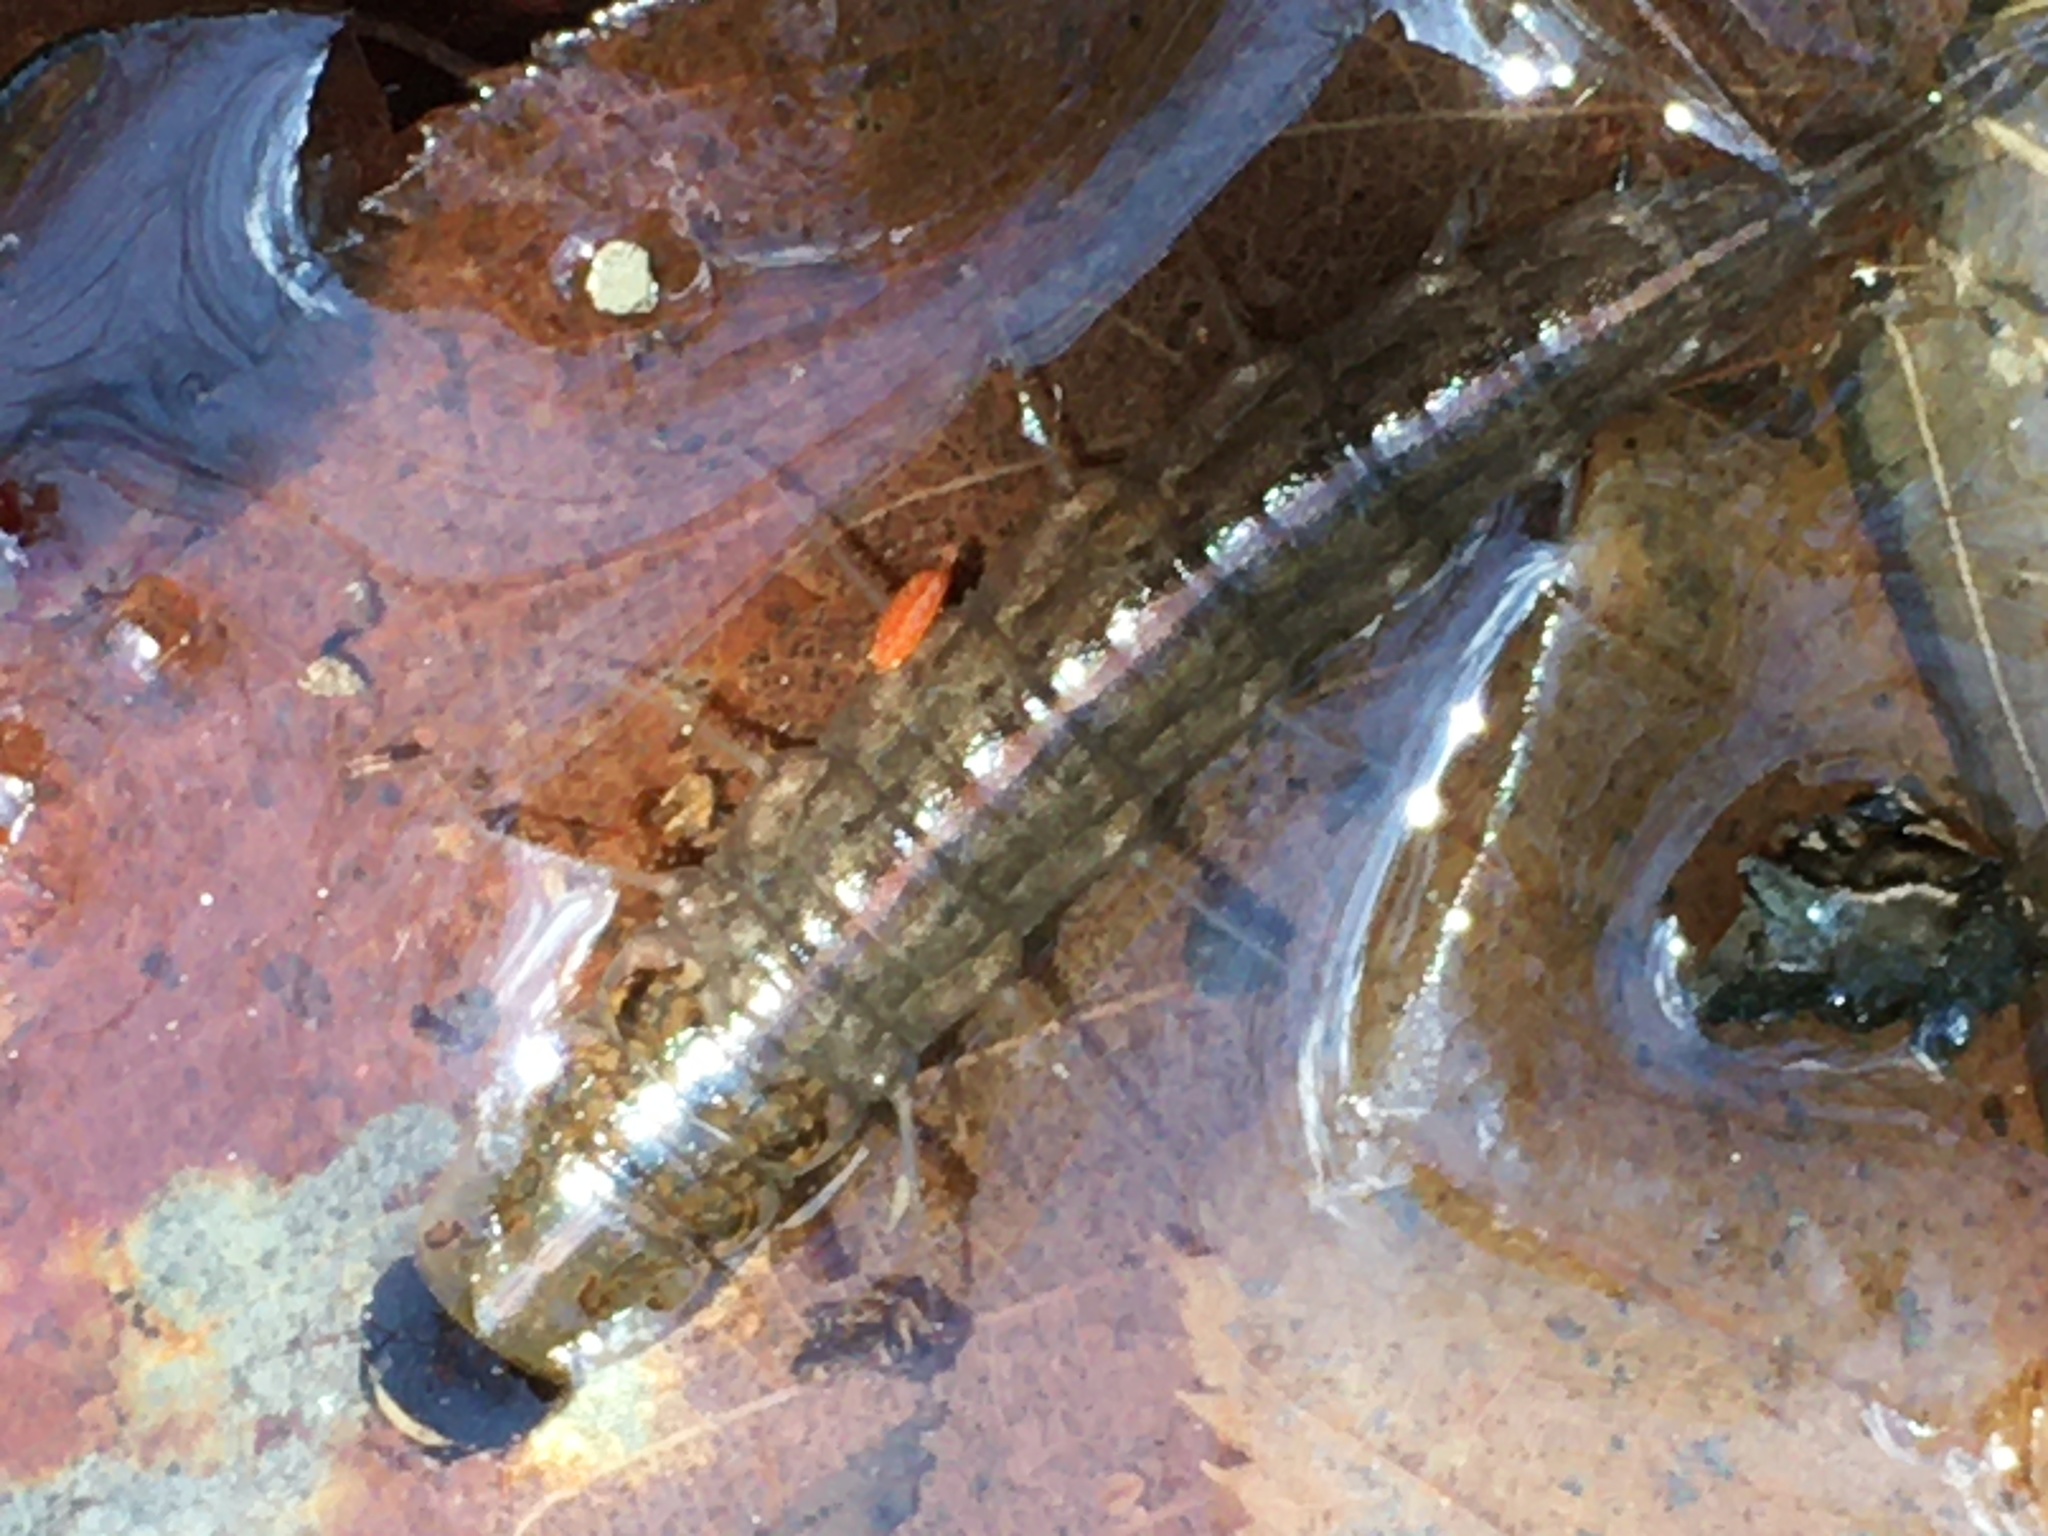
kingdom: Animalia
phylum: Arthropoda
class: Insecta
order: Megaloptera
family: Corydalidae
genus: Chauliodes
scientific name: Chauliodes pectinicornis
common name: Summer fishfly
